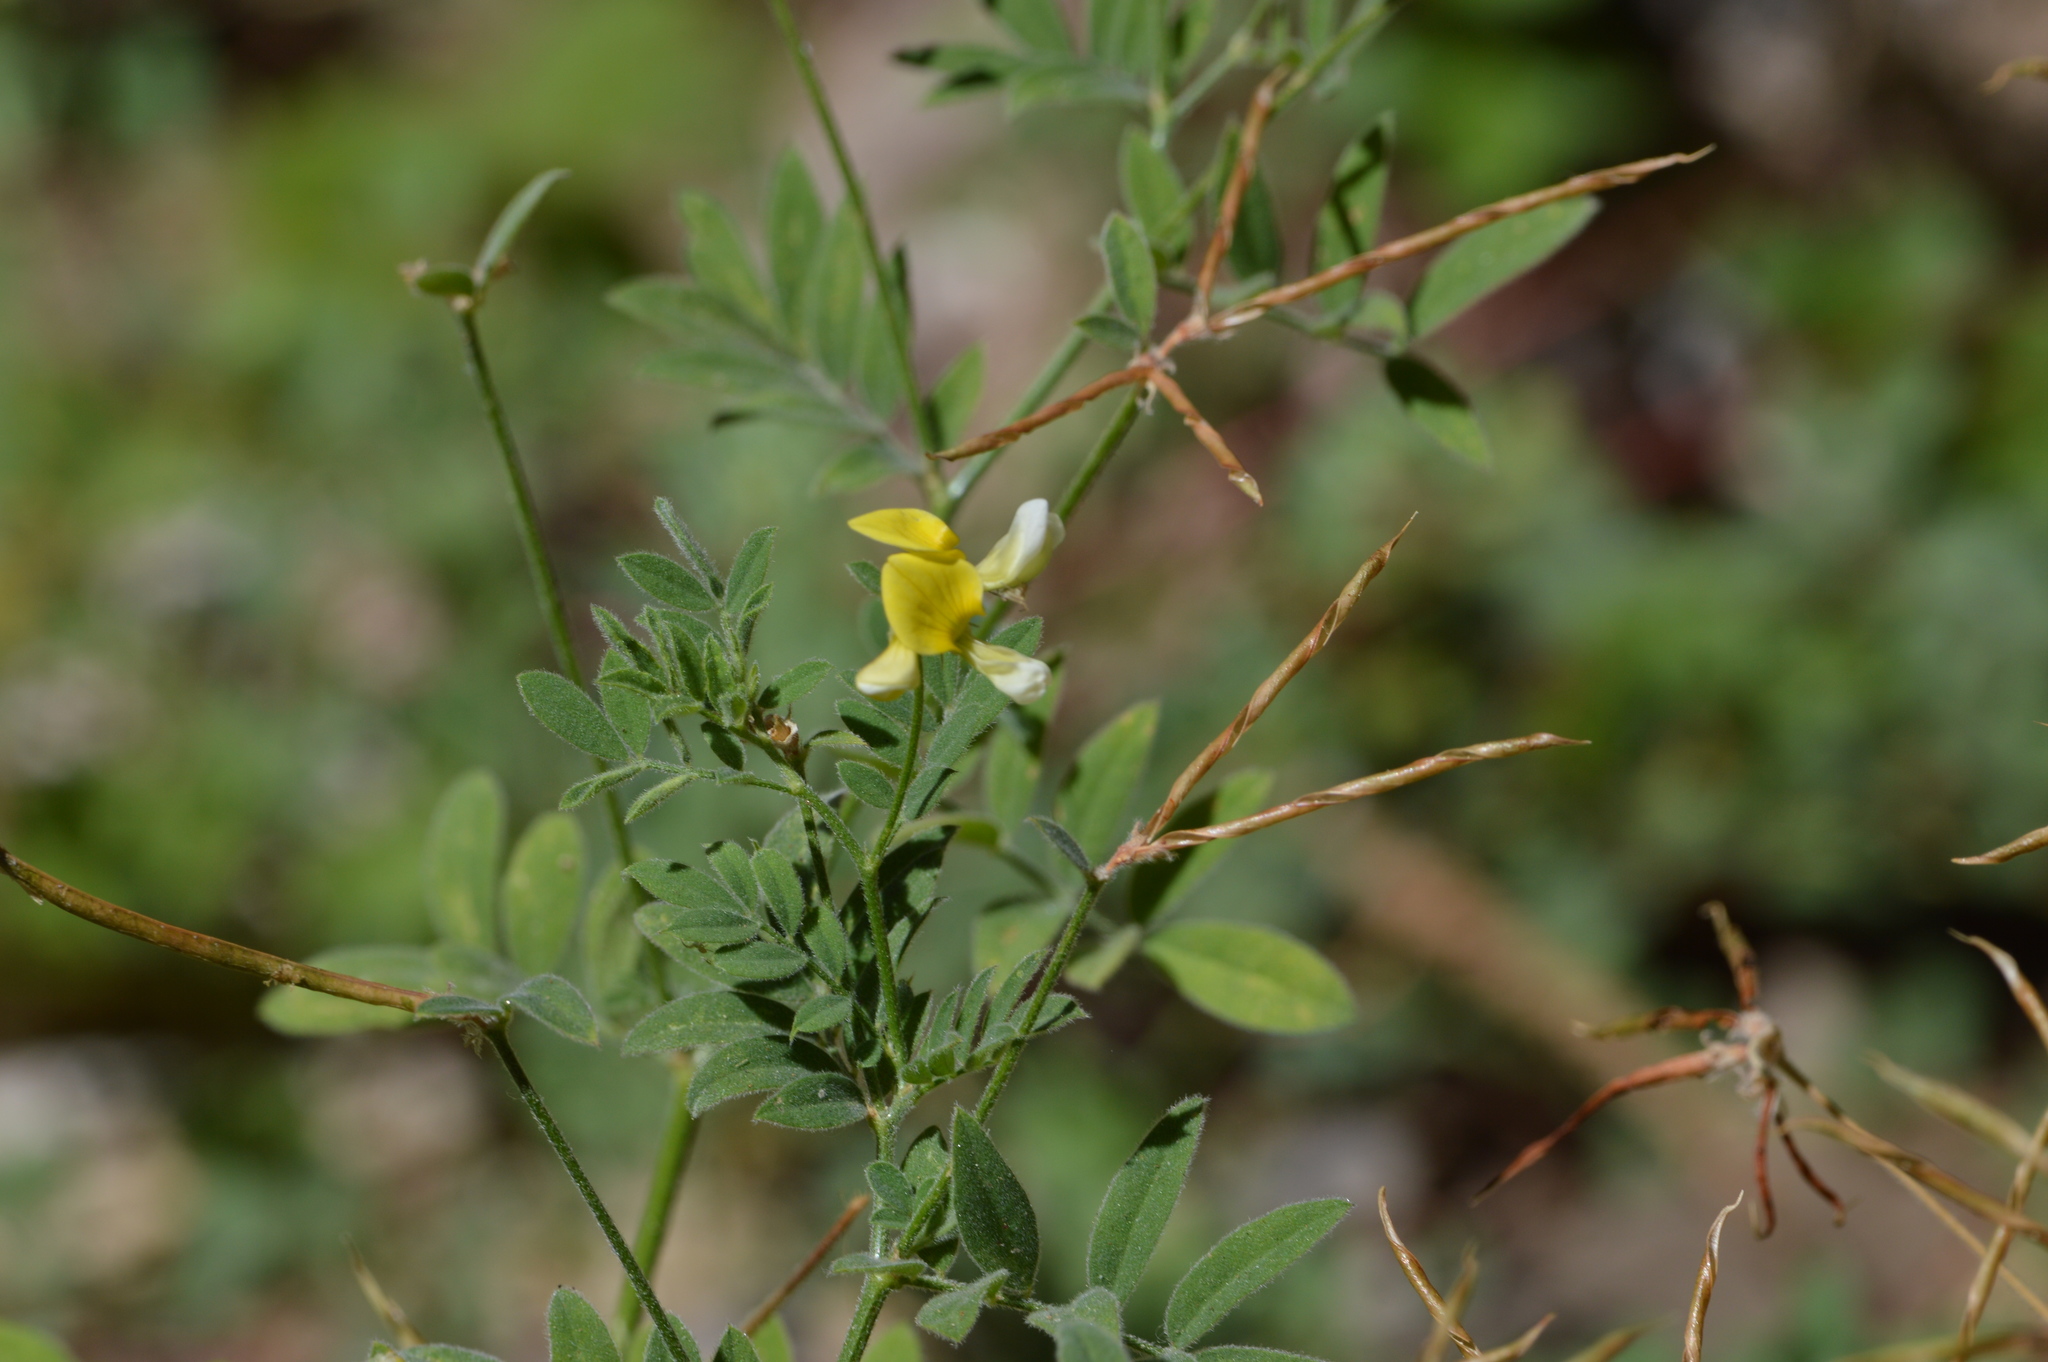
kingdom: Plantae
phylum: Tracheophyta
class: Magnoliopsida
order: Fabales
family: Fabaceae
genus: Hosackia
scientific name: Hosackia oblongifolia
